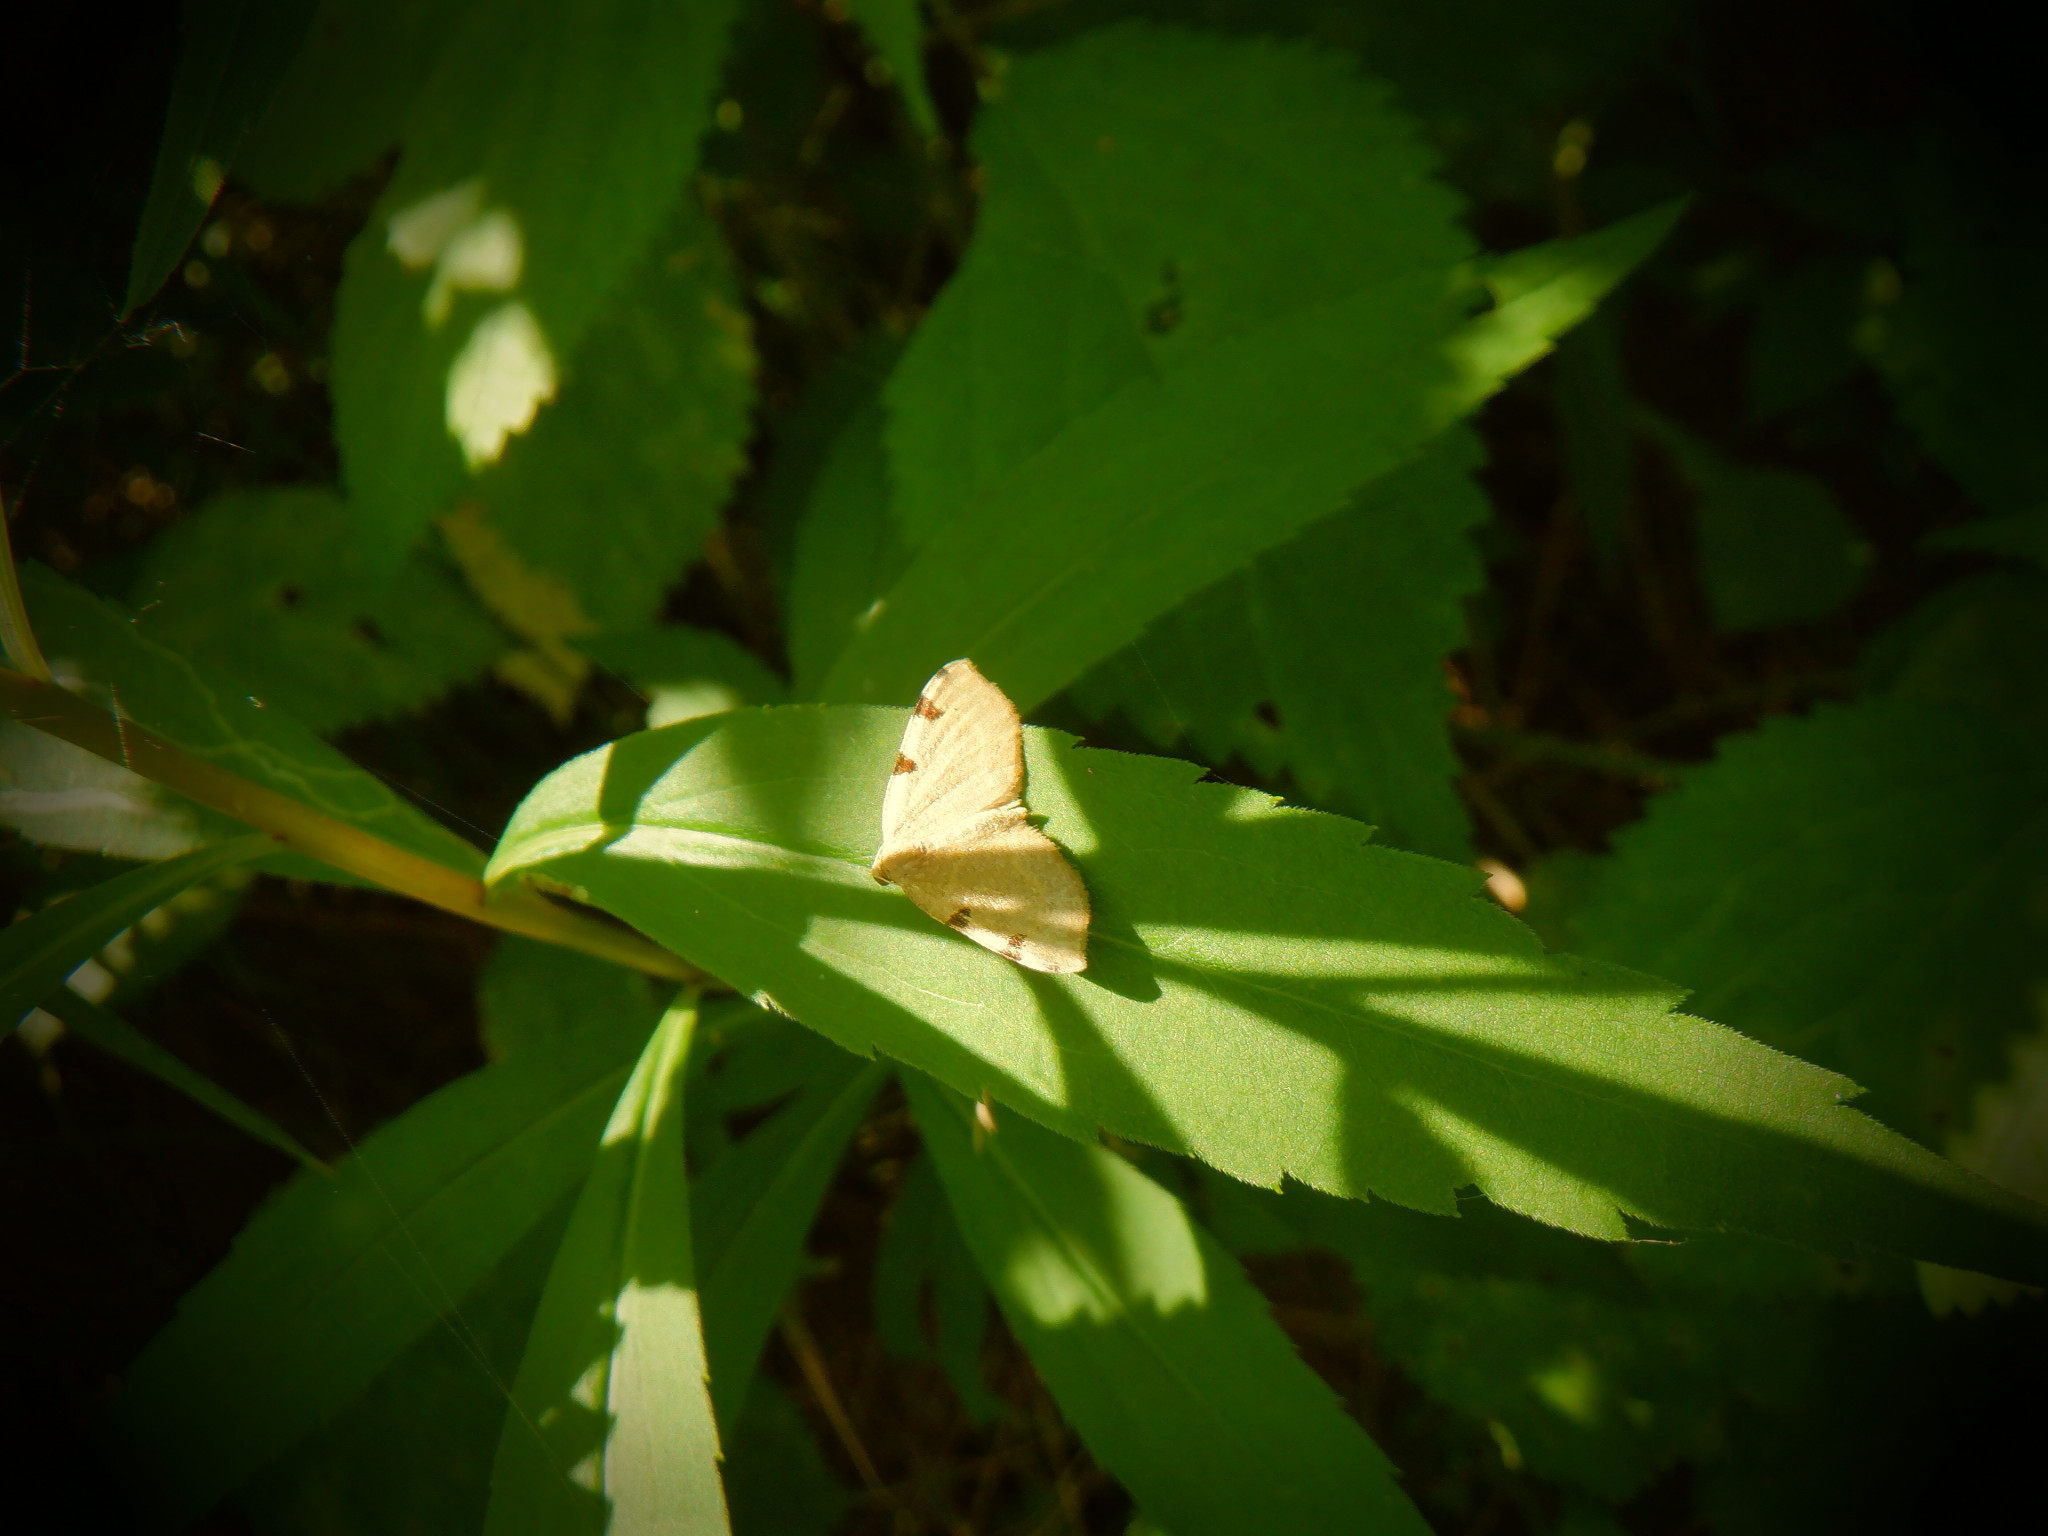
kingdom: Animalia
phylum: Arthropoda
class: Insecta
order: Lepidoptera
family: Geometridae
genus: Heterophleps
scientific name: Heterophleps triguttaria
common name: Three-spotted fillip
